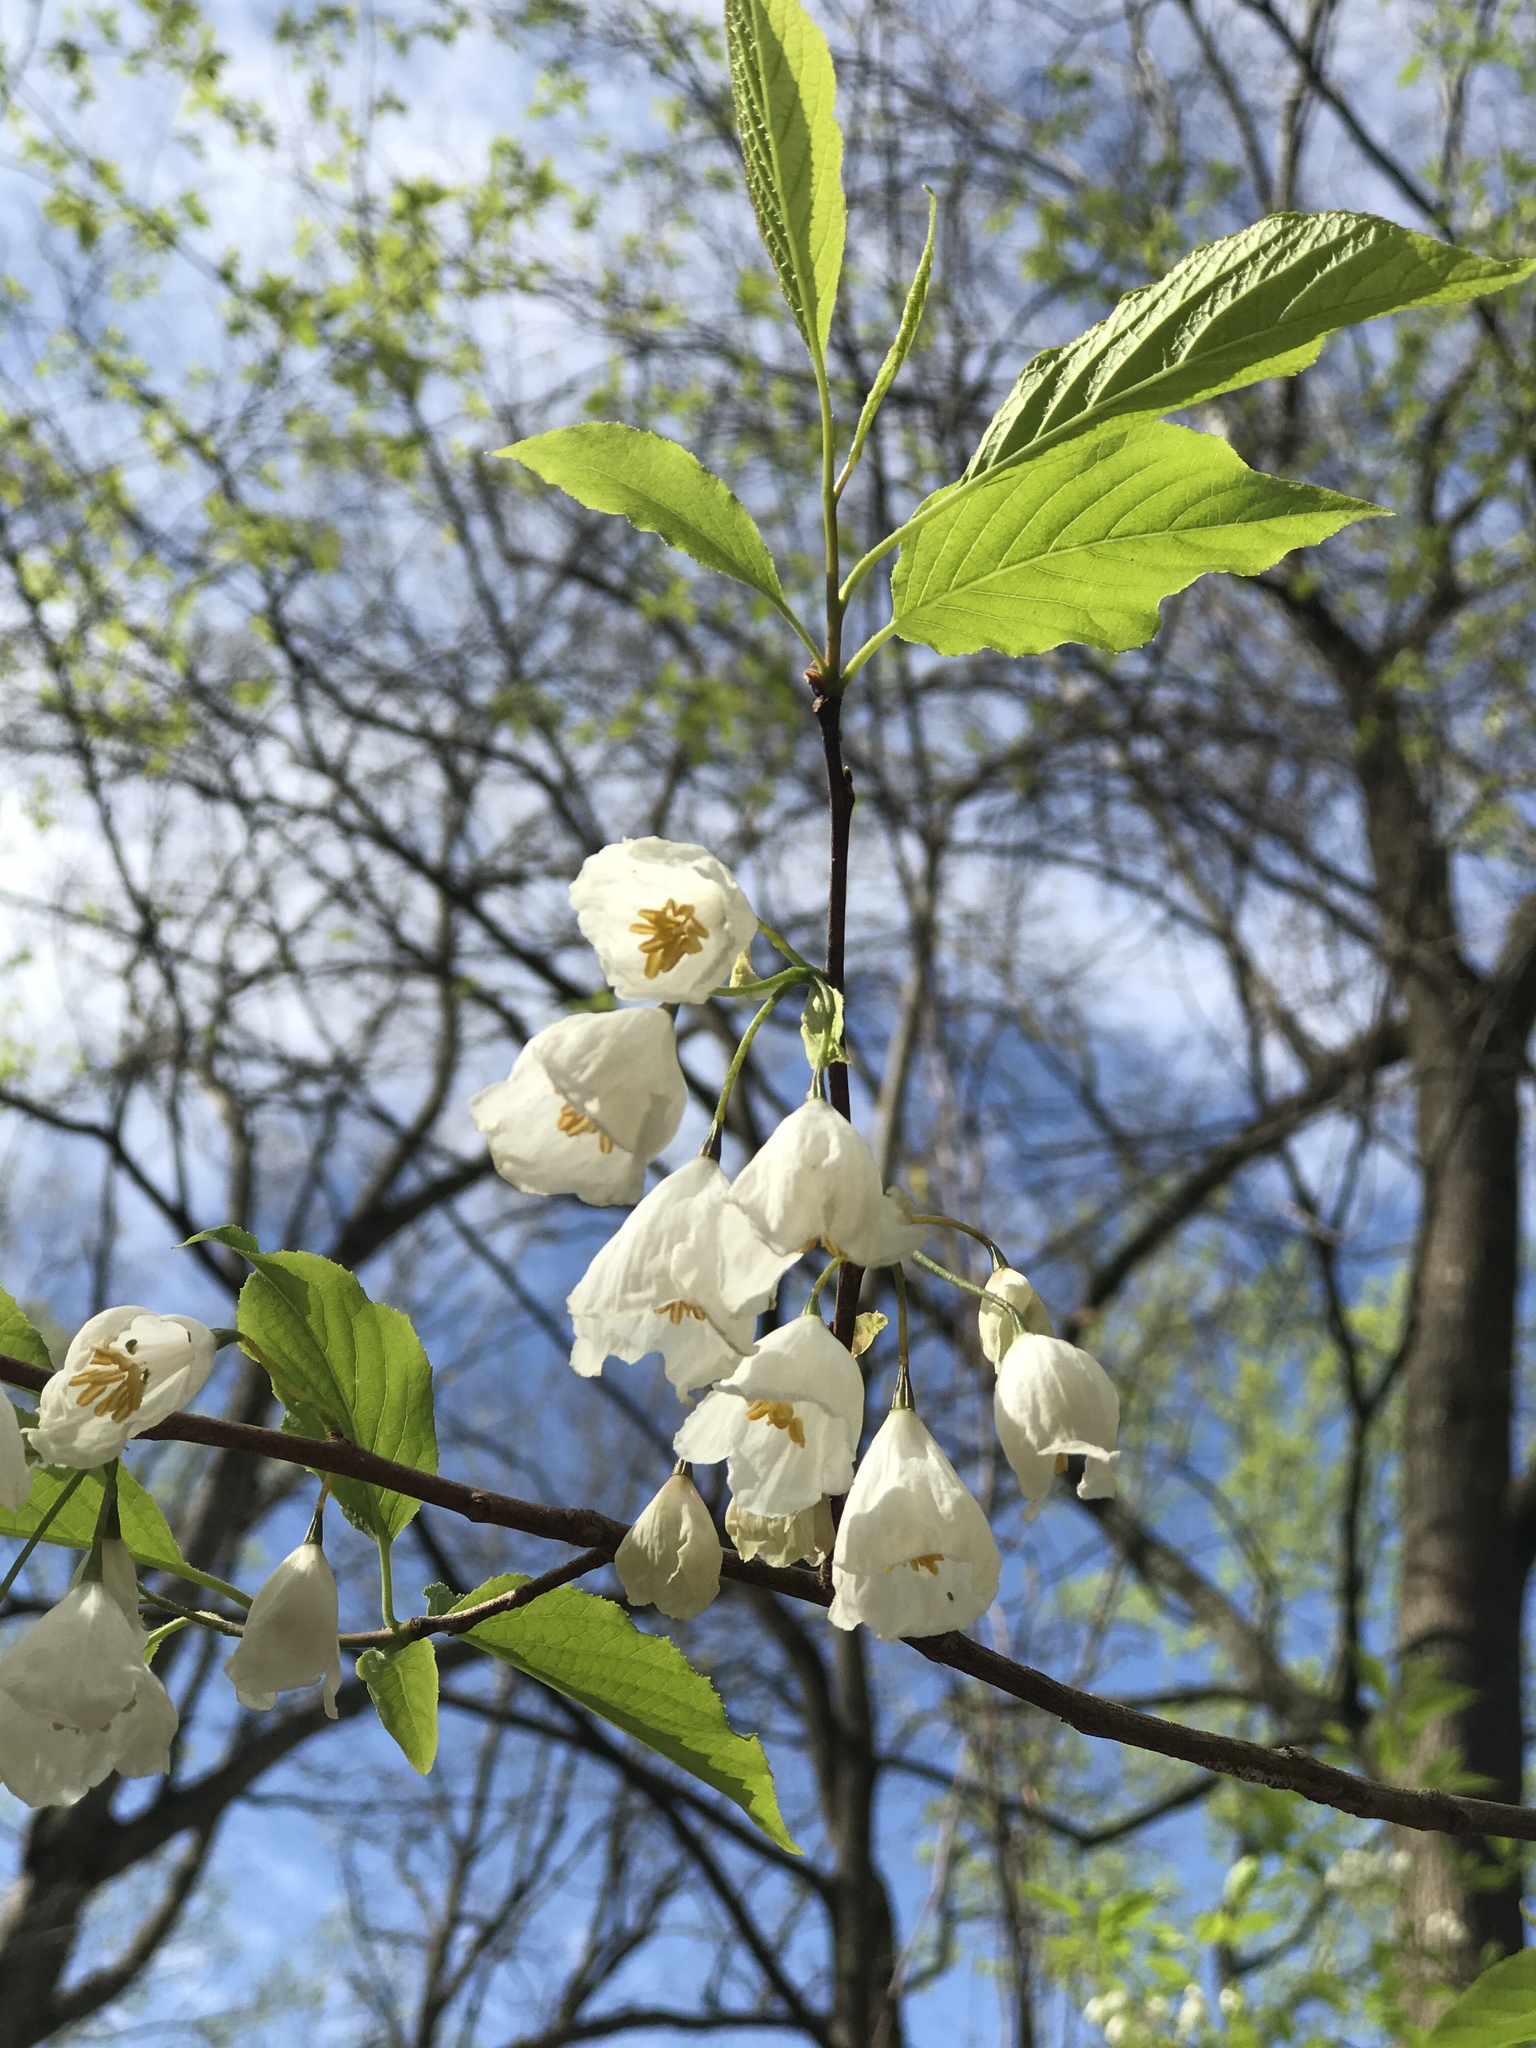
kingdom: Plantae
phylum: Tracheophyta
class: Magnoliopsida
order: Ericales
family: Styracaceae
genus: Halesia
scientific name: Halesia tetraptera
